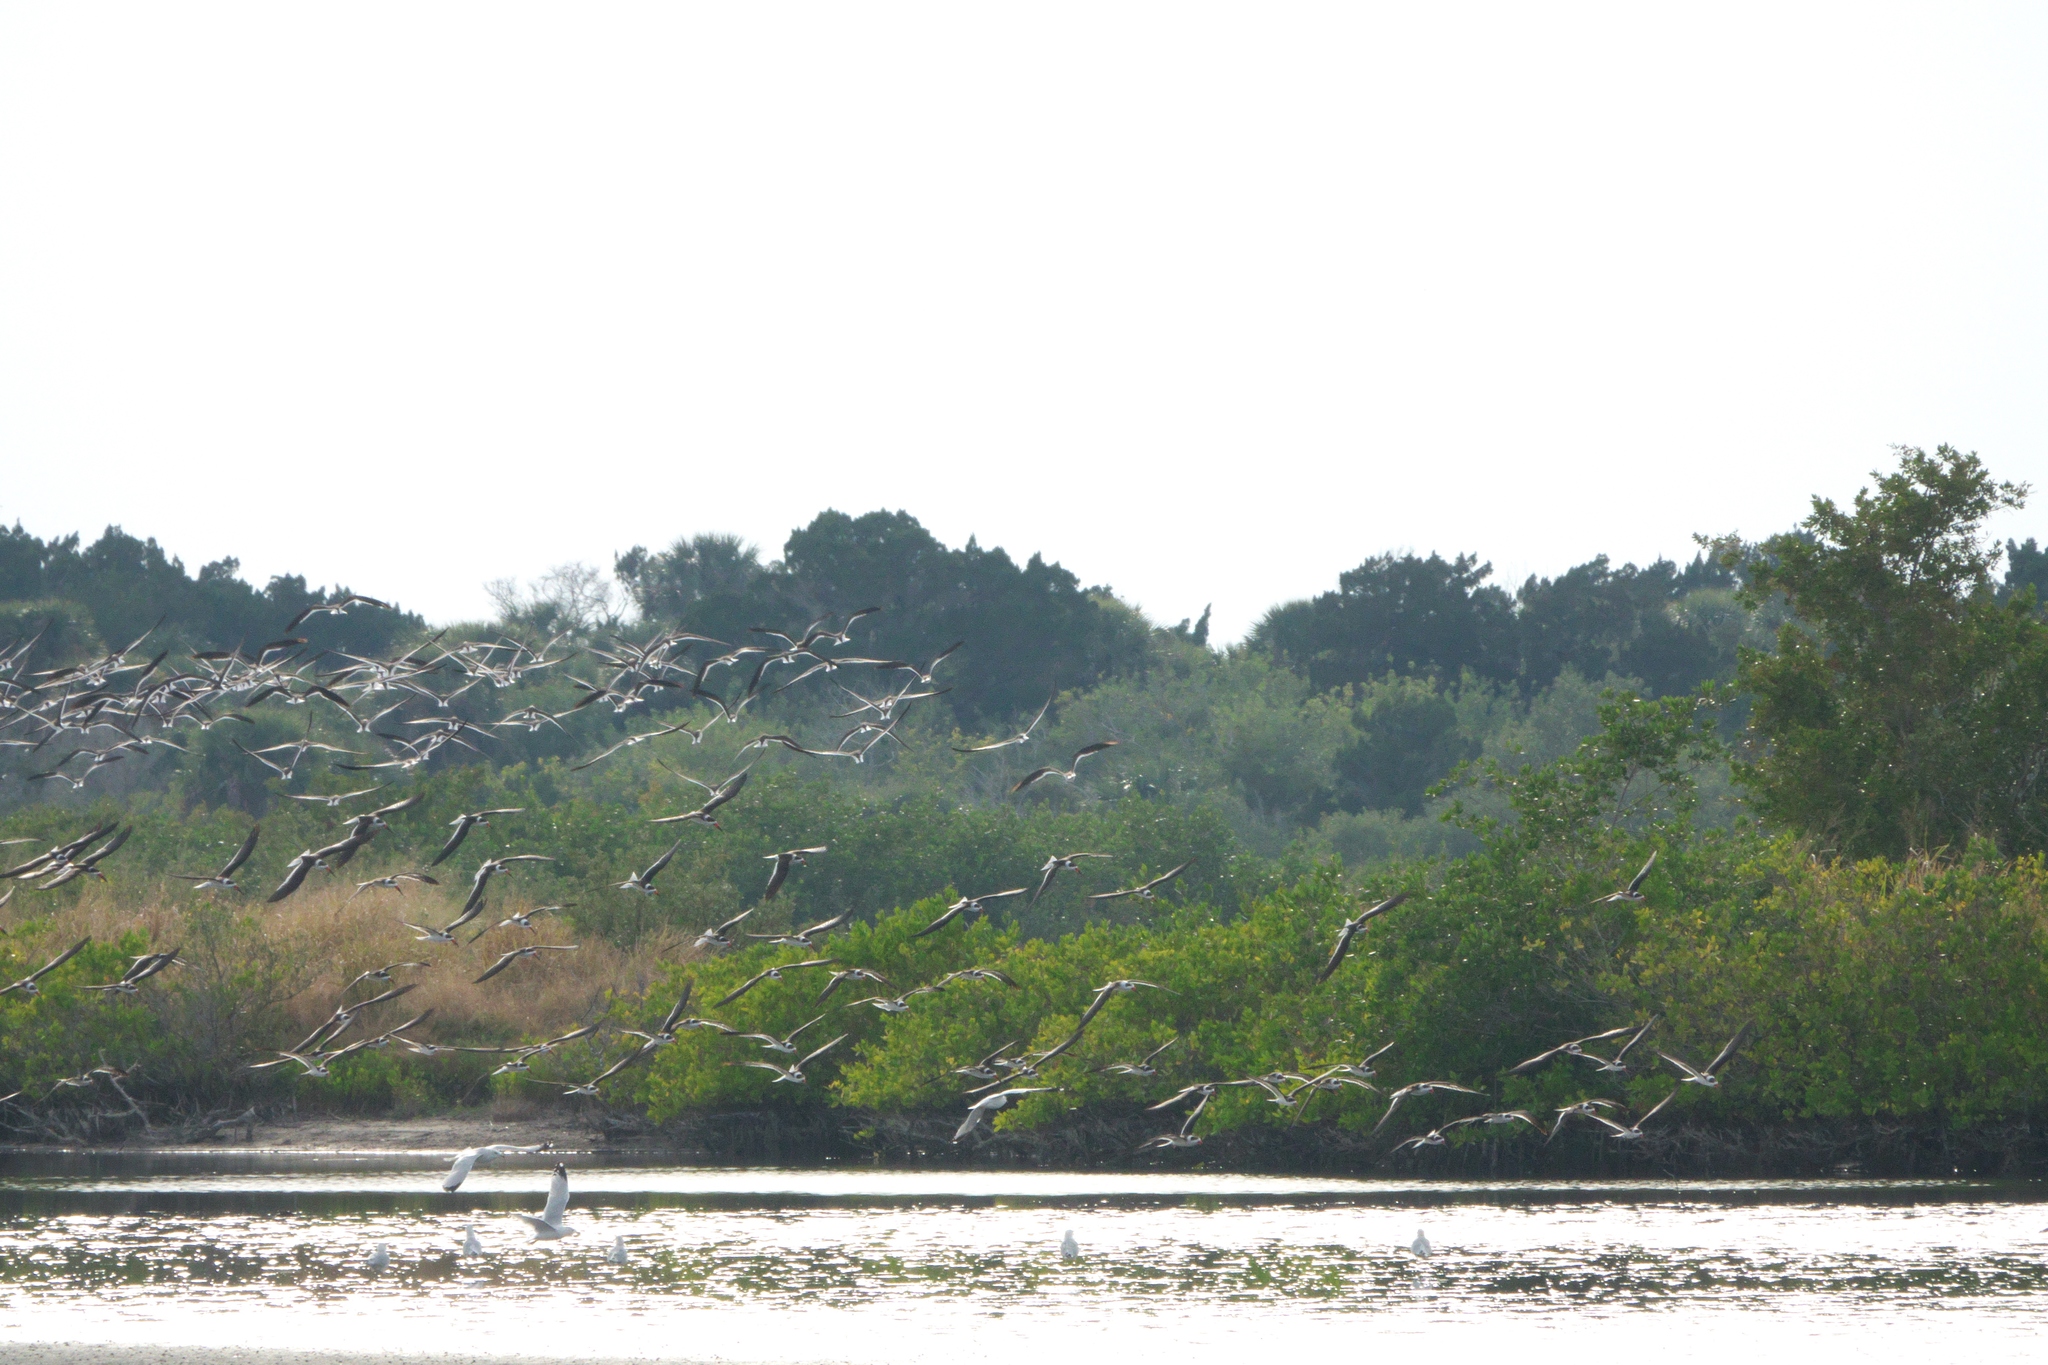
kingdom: Animalia
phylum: Chordata
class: Aves
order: Charadriiformes
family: Laridae
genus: Rynchops
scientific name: Rynchops niger
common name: Black skimmer
